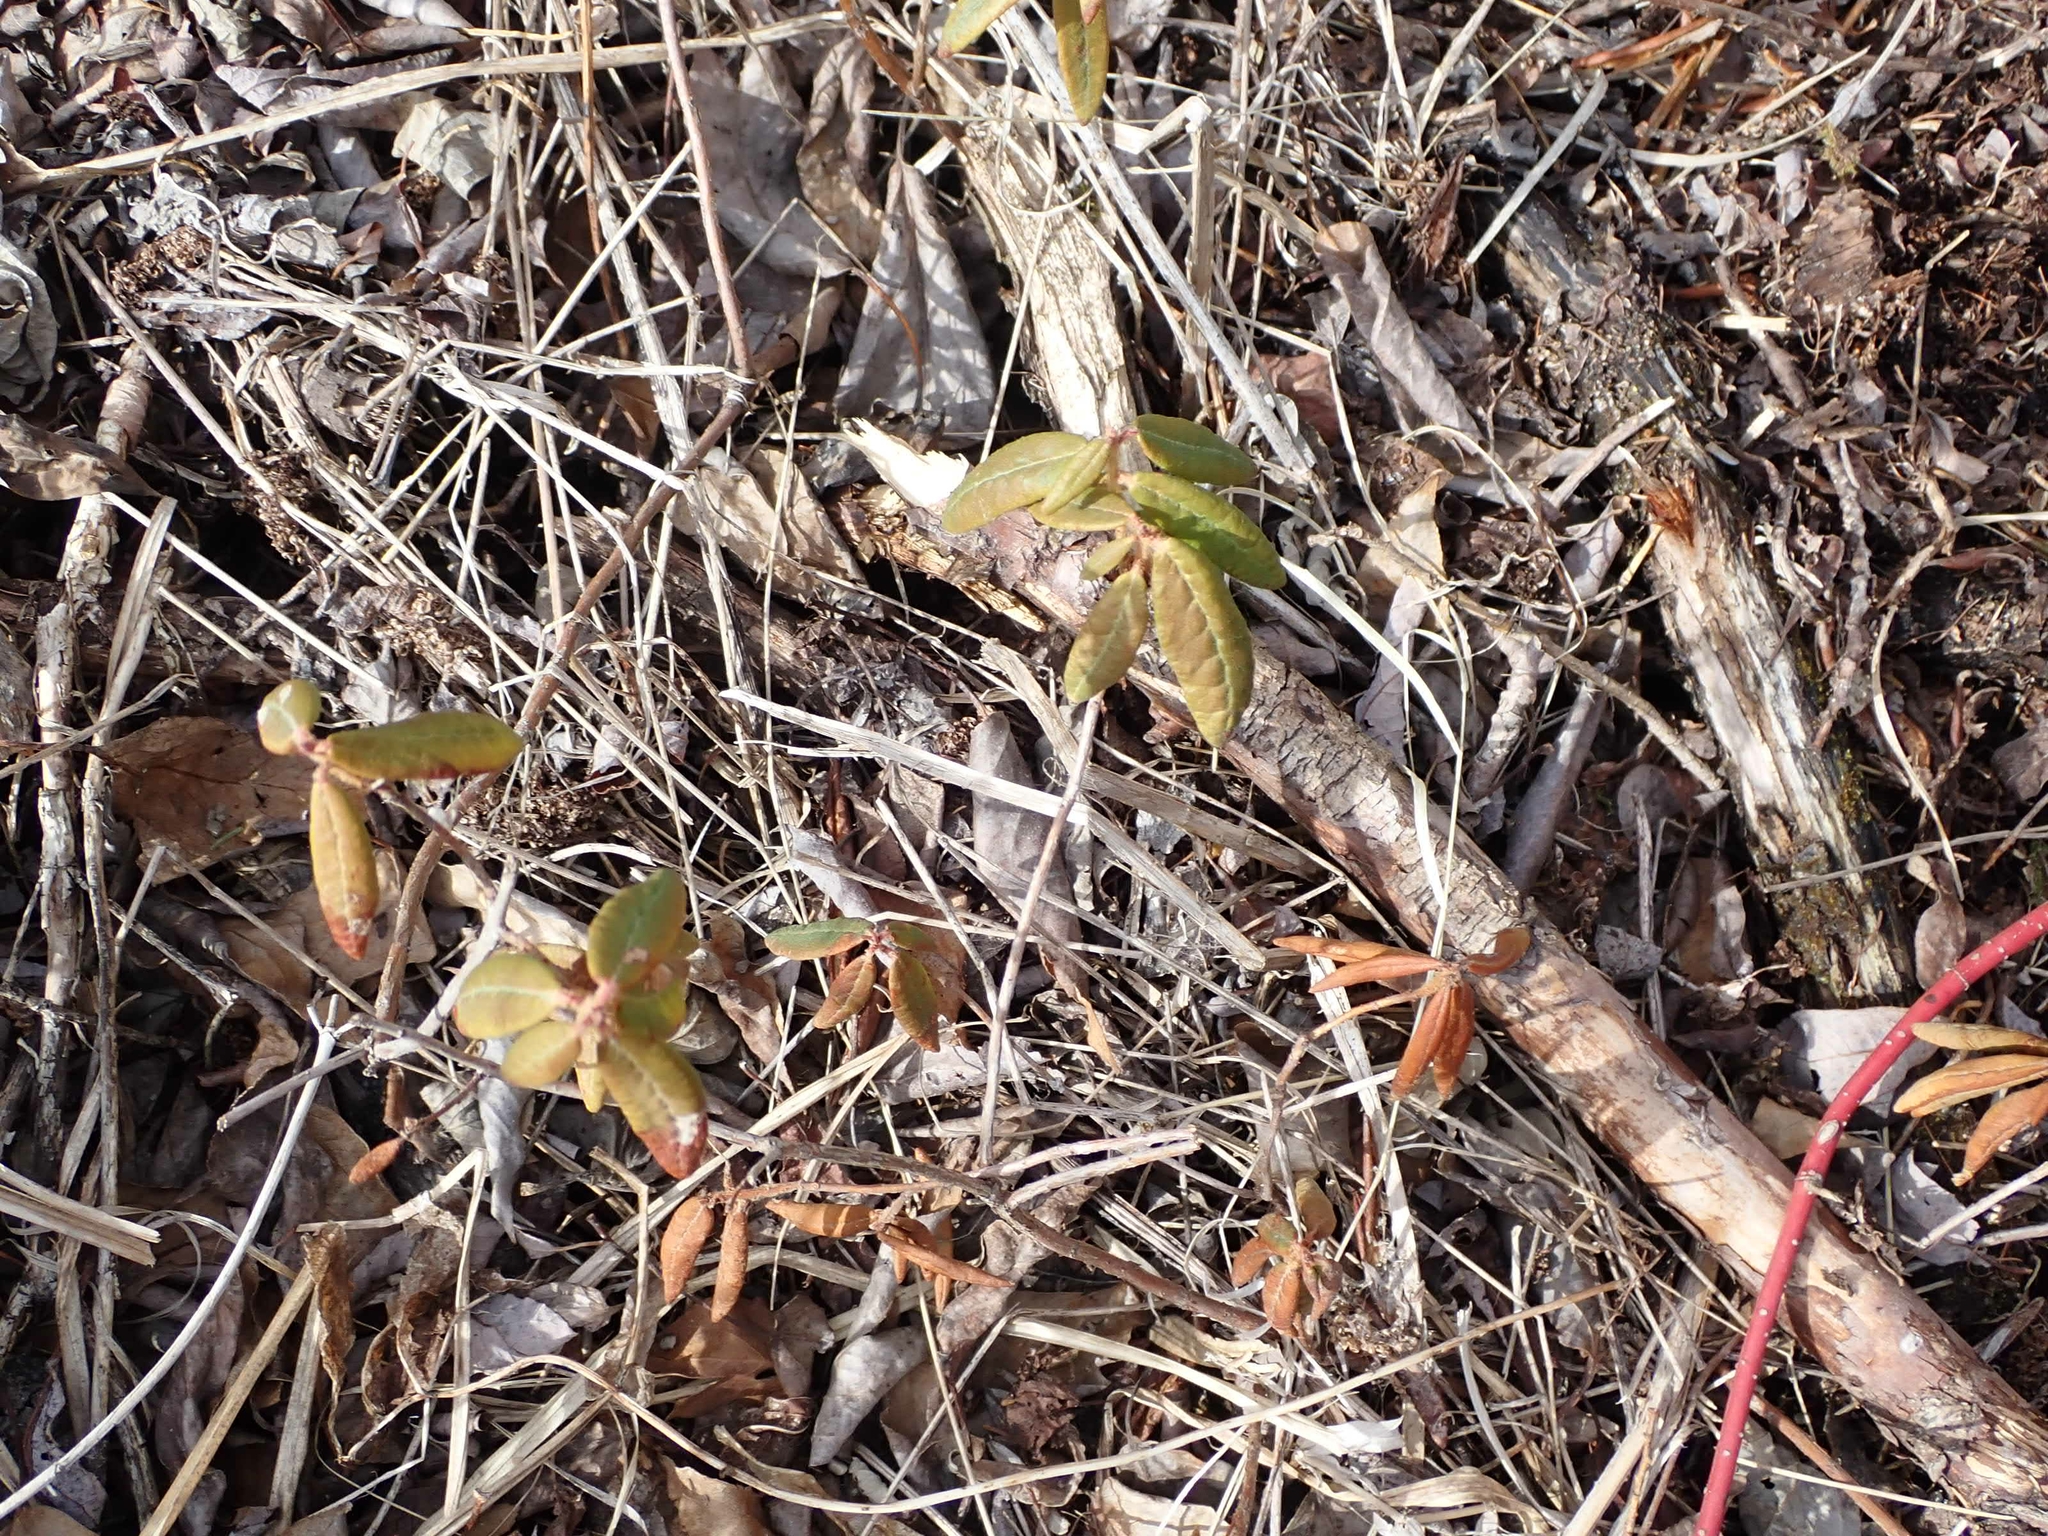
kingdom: Plantae
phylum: Tracheophyta
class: Magnoliopsida
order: Ericales
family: Ericaceae
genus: Rhododendron
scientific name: Rhododendron groenlandicum
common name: Bog labrador tea
